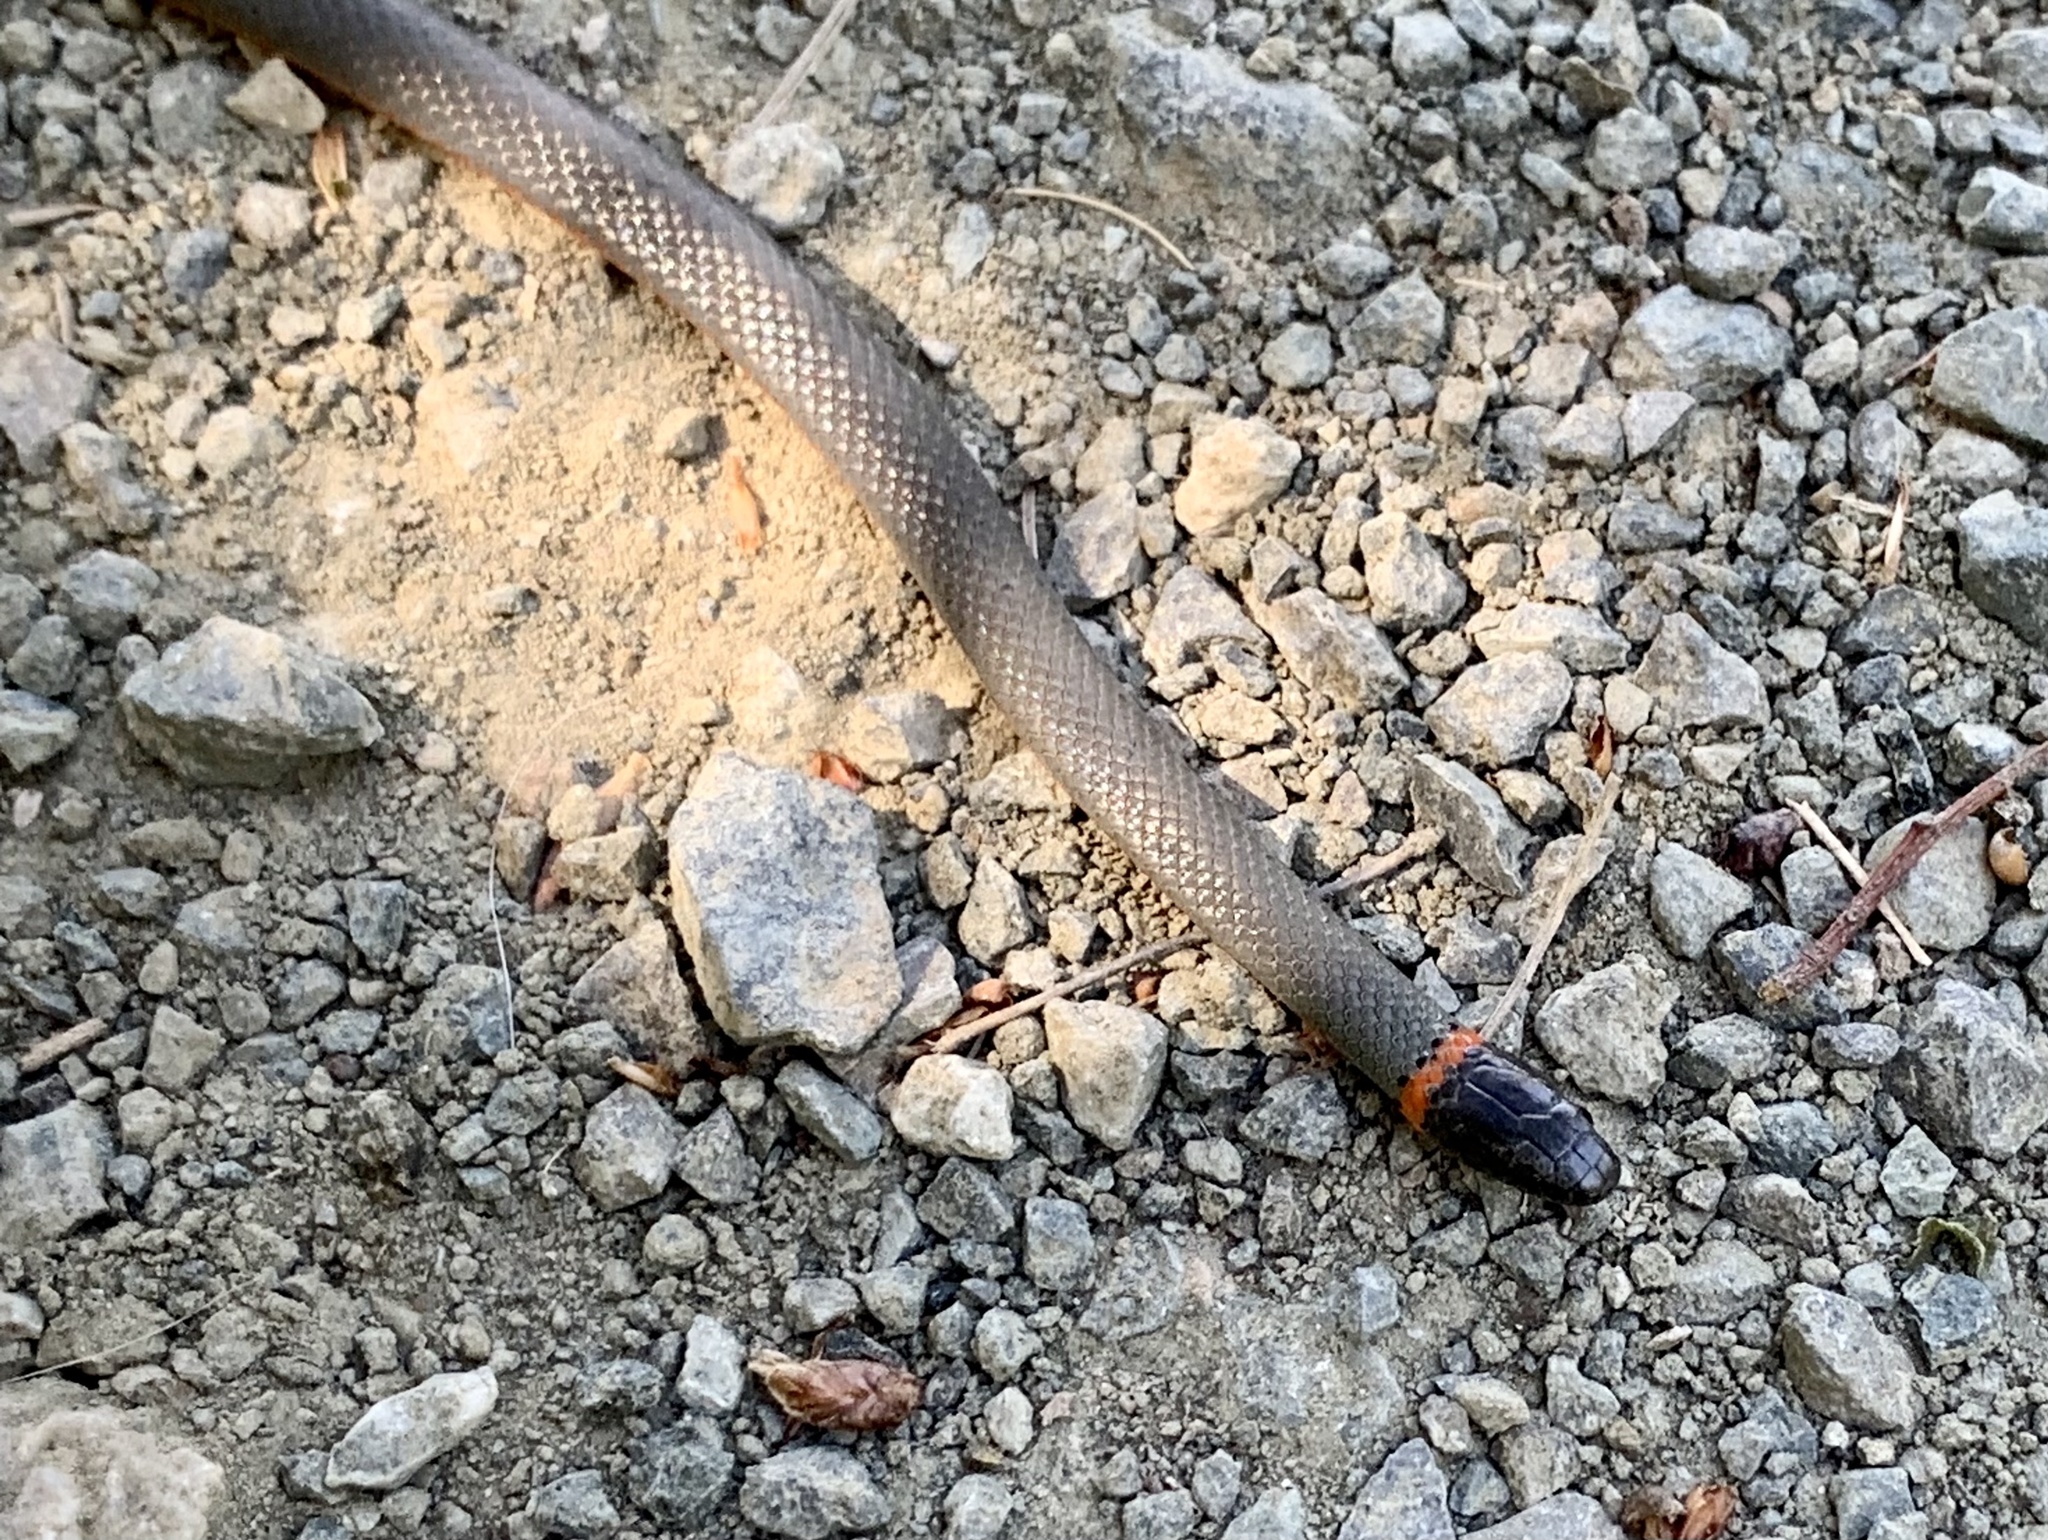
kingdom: Animalia
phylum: Chordata
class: Squamata
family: Colubridae
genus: Diadophis
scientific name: Diadophis punctatus
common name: Ringneck snake
